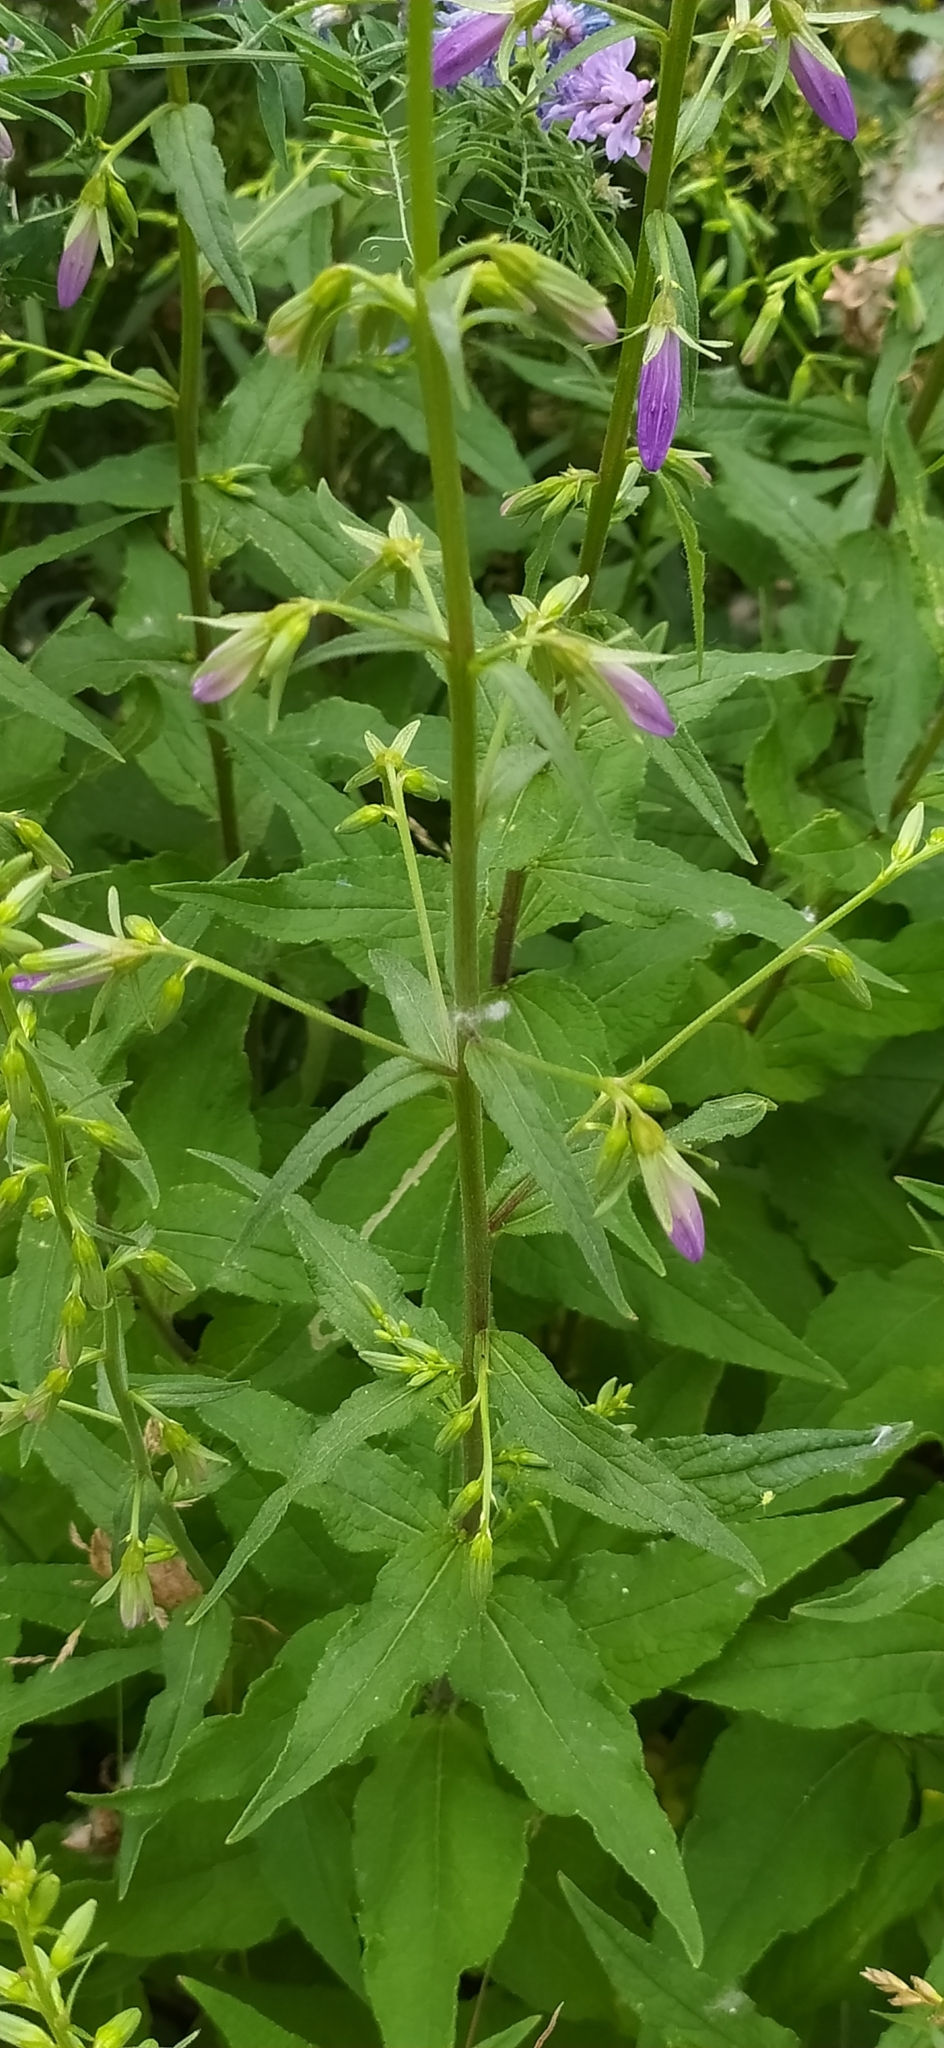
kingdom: Plantae
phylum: Tracheophyta
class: Magnoliopsida
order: Asterales
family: Campanulaceae
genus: Campanula
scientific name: Campanula rapunculoides
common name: Creeping bellflower
